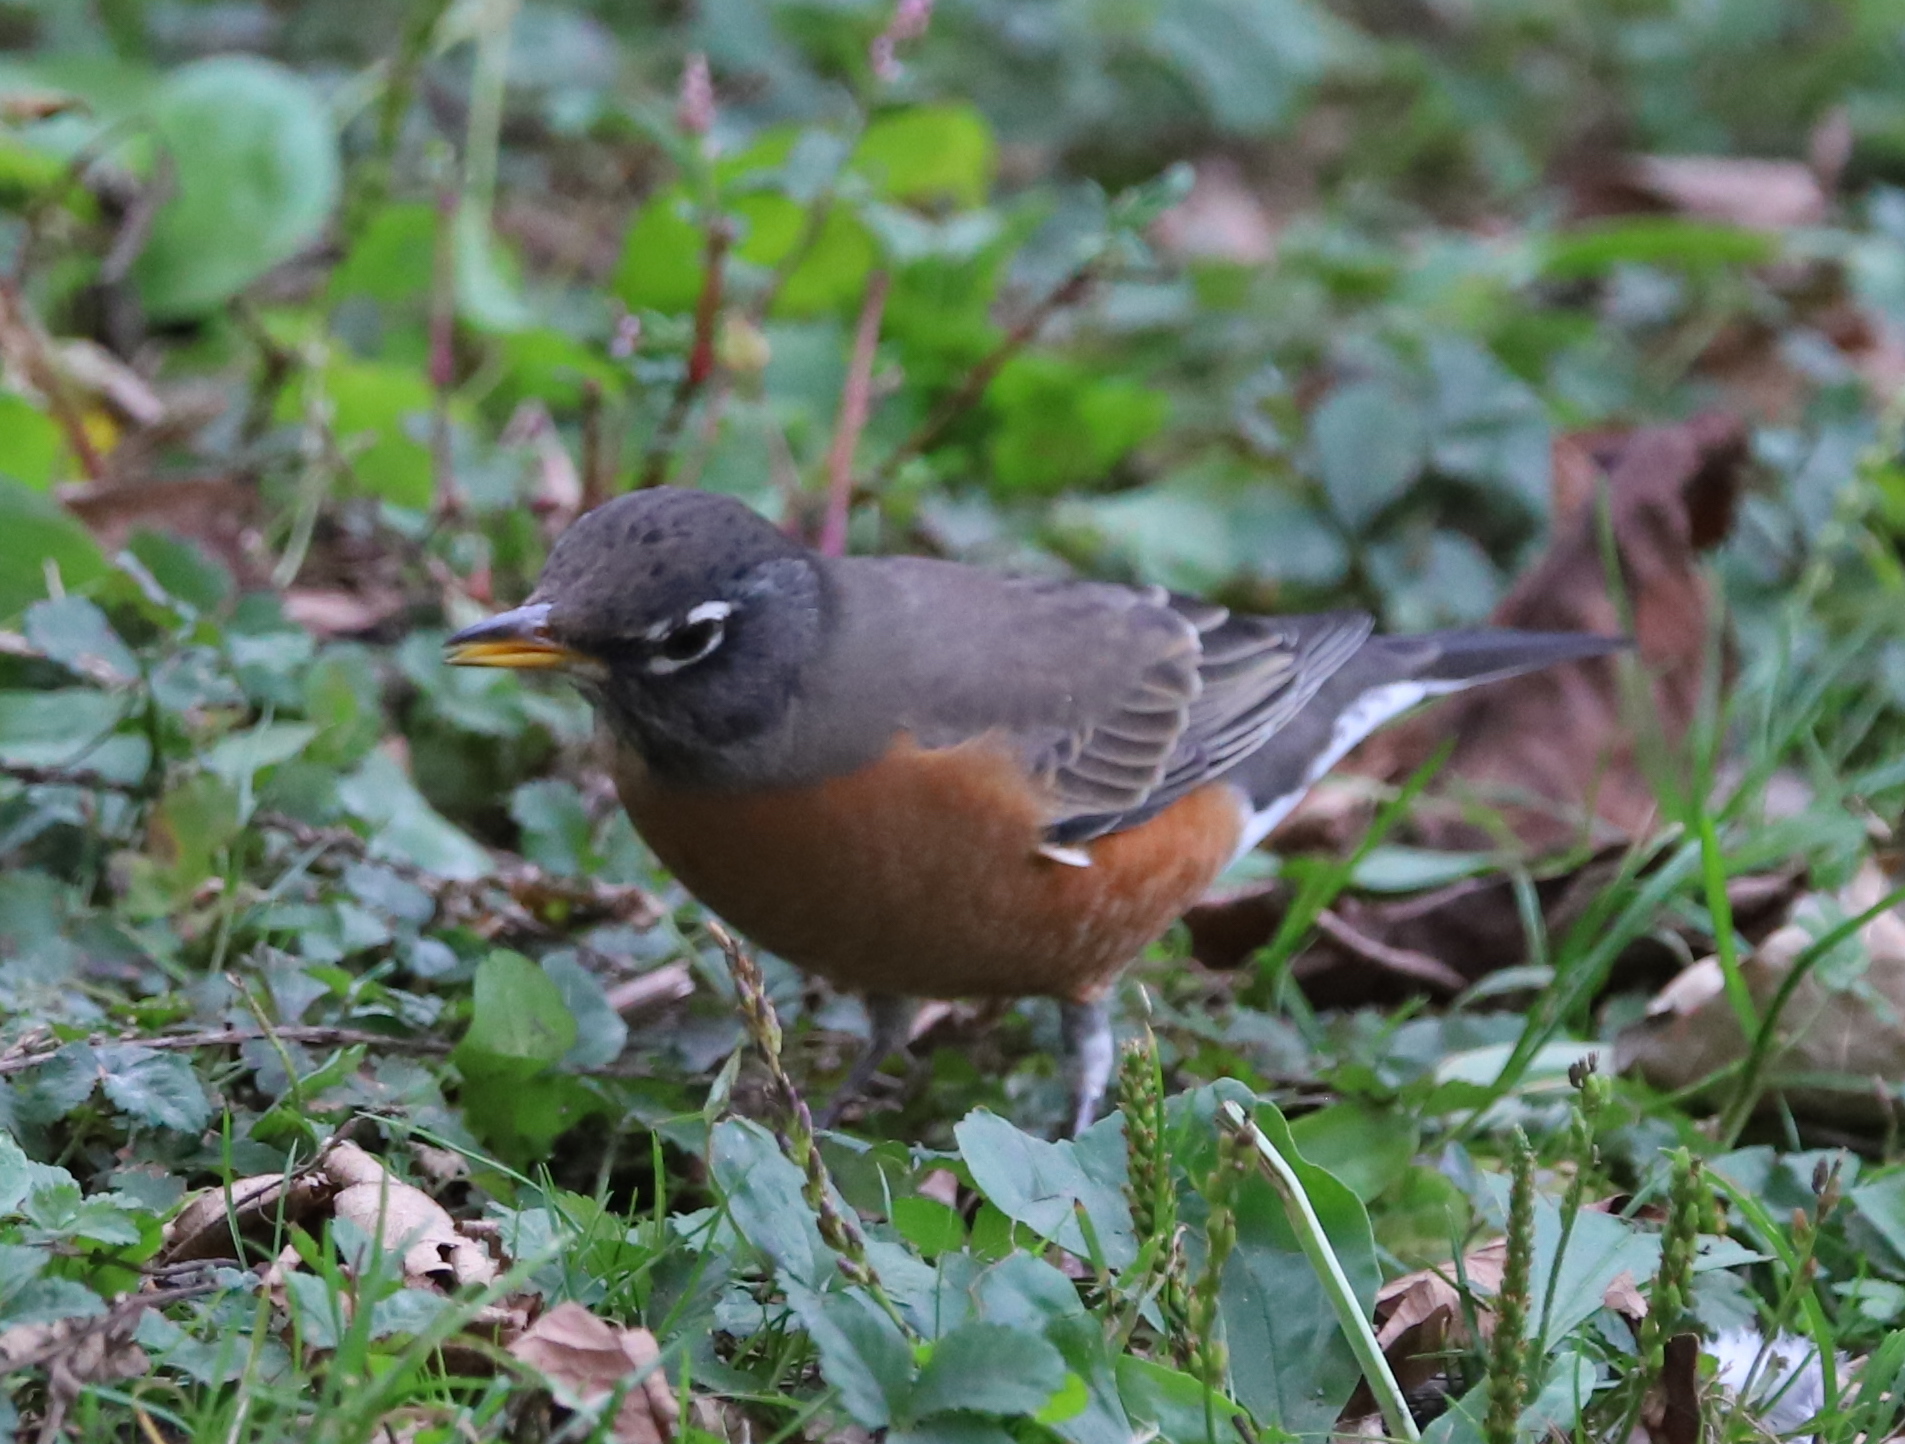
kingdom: Animalia
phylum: Chordata
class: Aves
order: Passeriformes
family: Turdidae
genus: Turdus
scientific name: Turdus migratorius
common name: American robin
